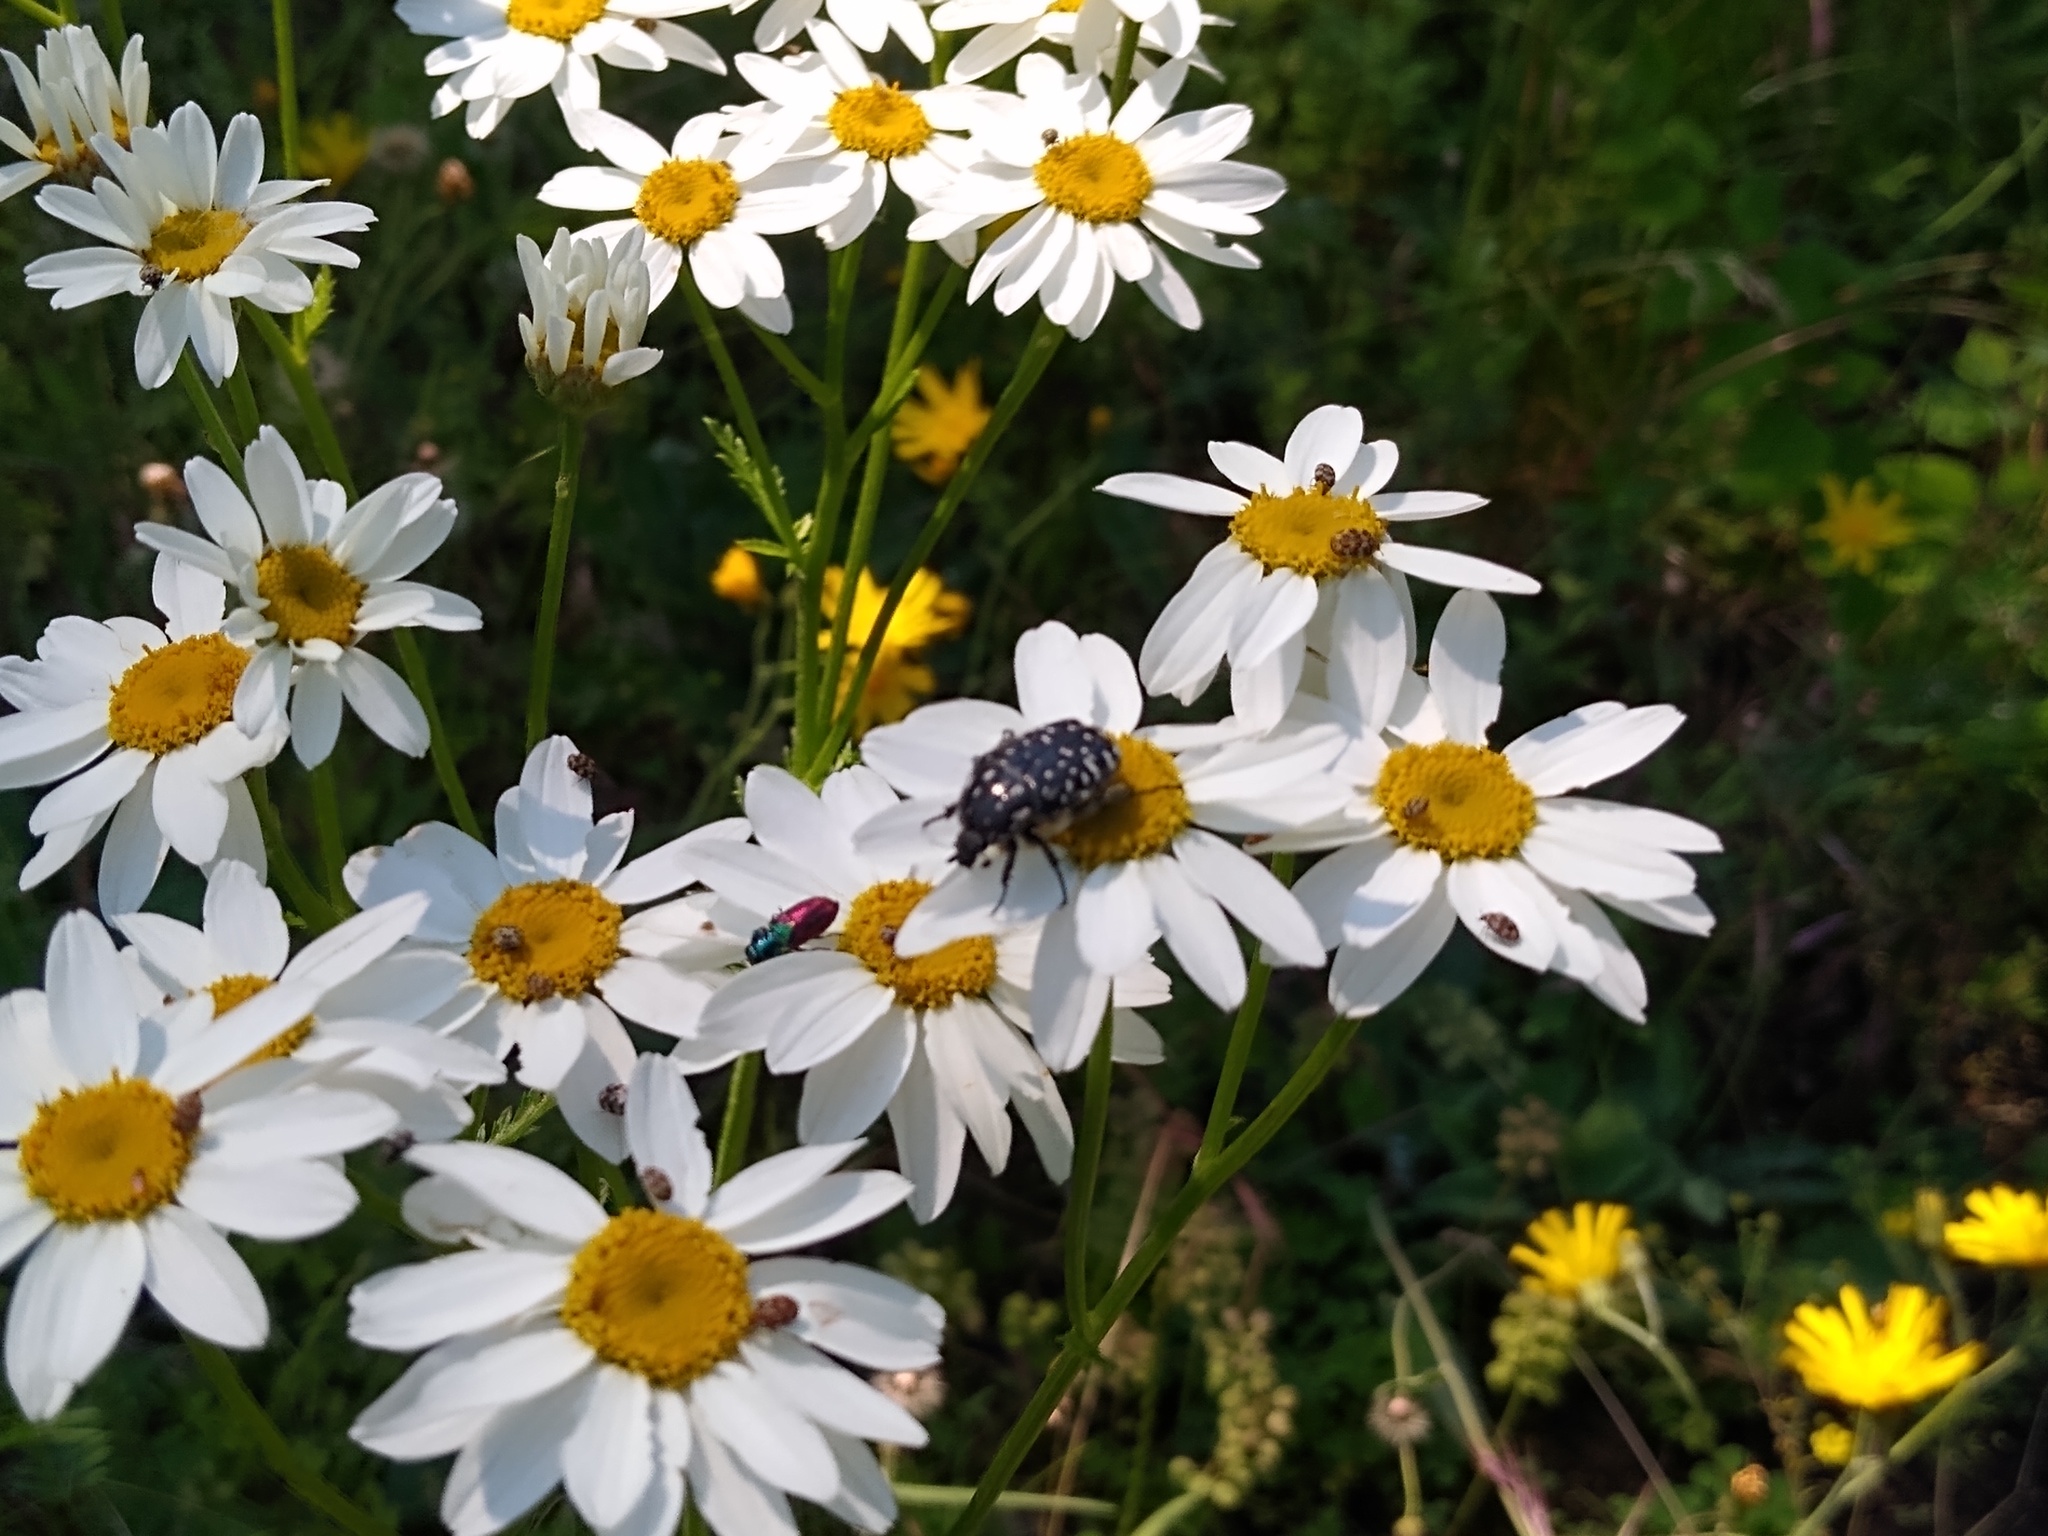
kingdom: Animalia
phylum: Arthropoda
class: Insecta
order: Coleoptera
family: Scarabaeidae
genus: Oxythyrea
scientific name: Oxythyrea funesta
